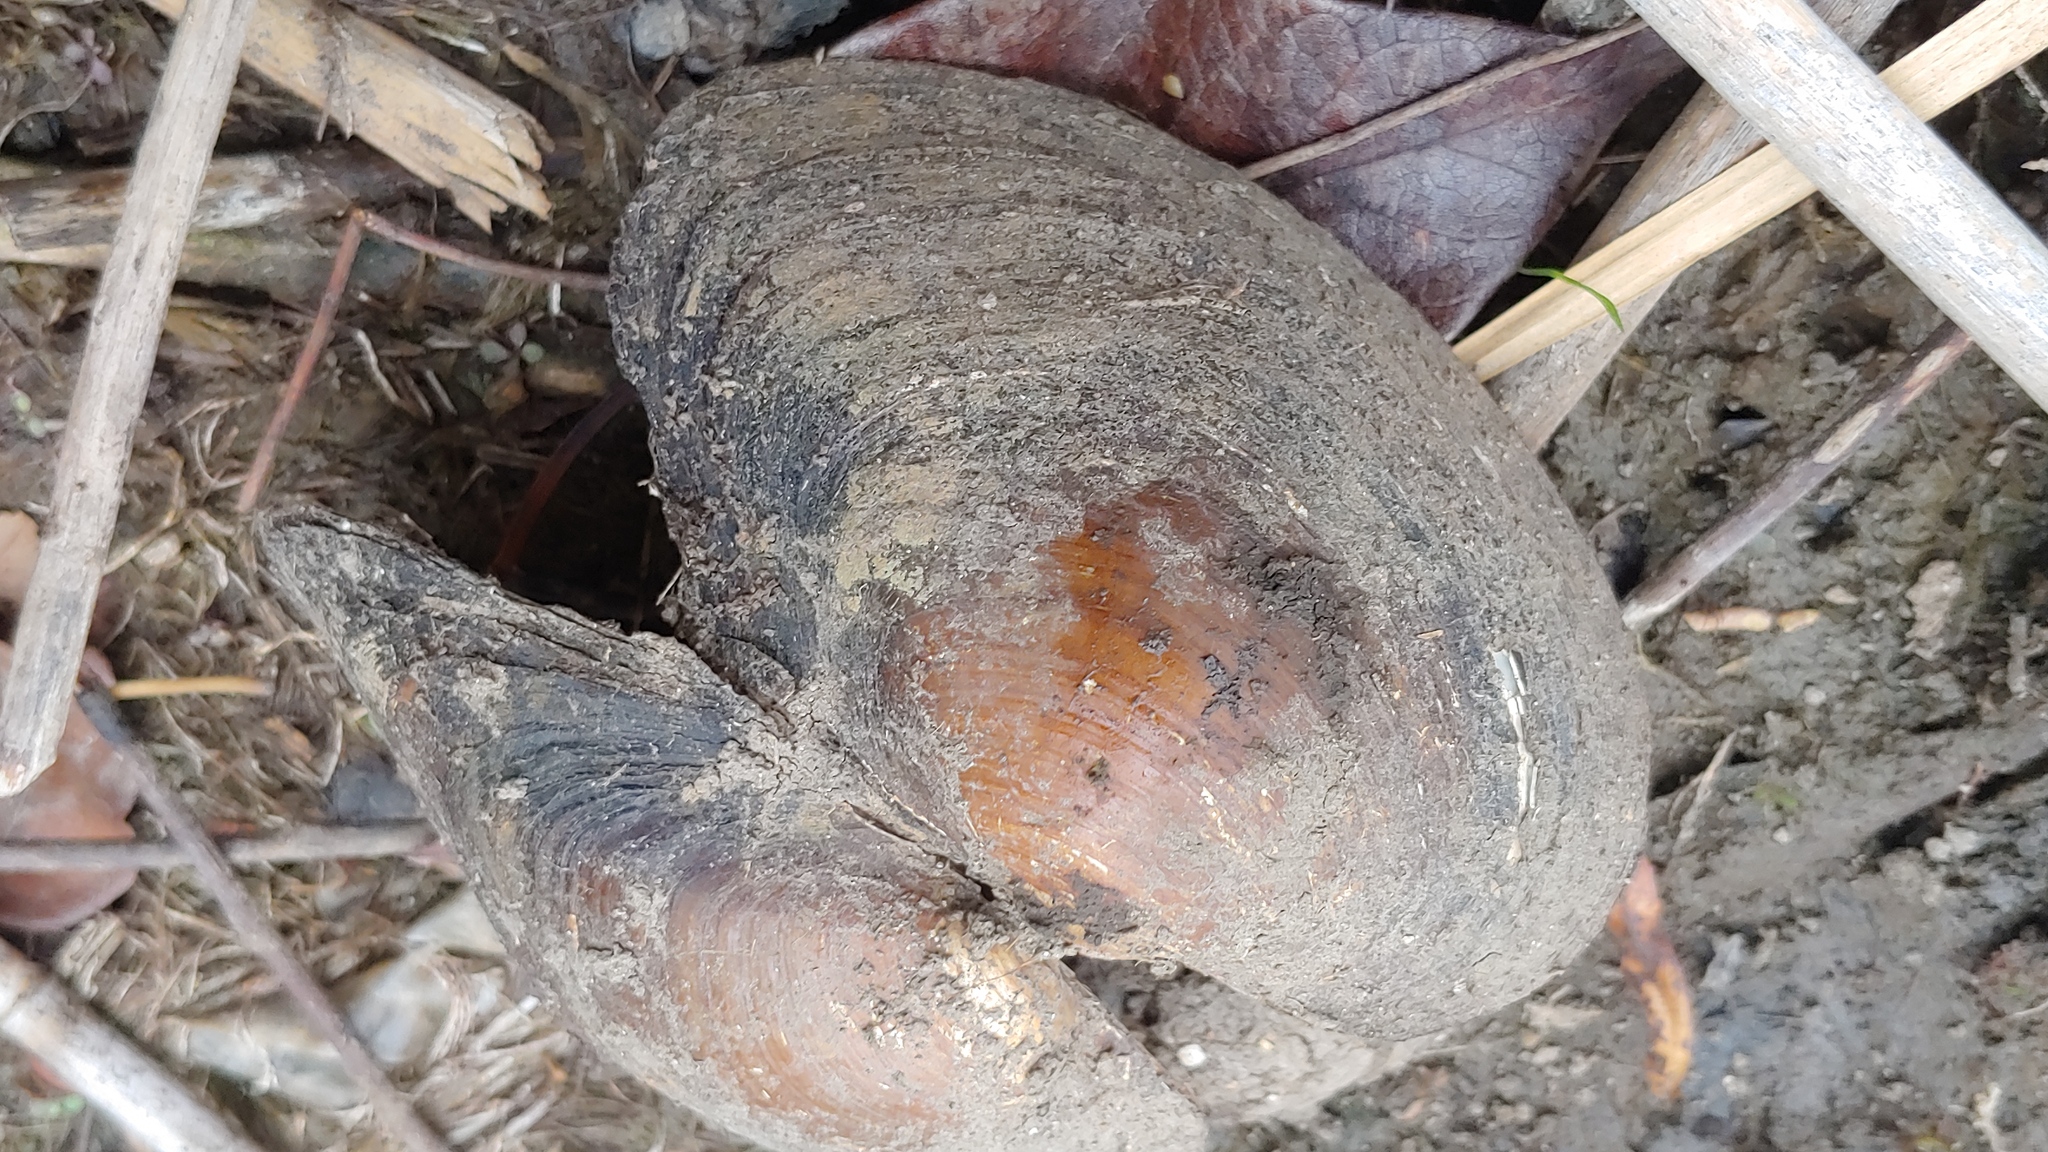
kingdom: Animalia
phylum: Mollusca
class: Bivalvia
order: Unionida
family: Unionidae
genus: Pyganodon
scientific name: Pyganodon grandis
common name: Giant floater
